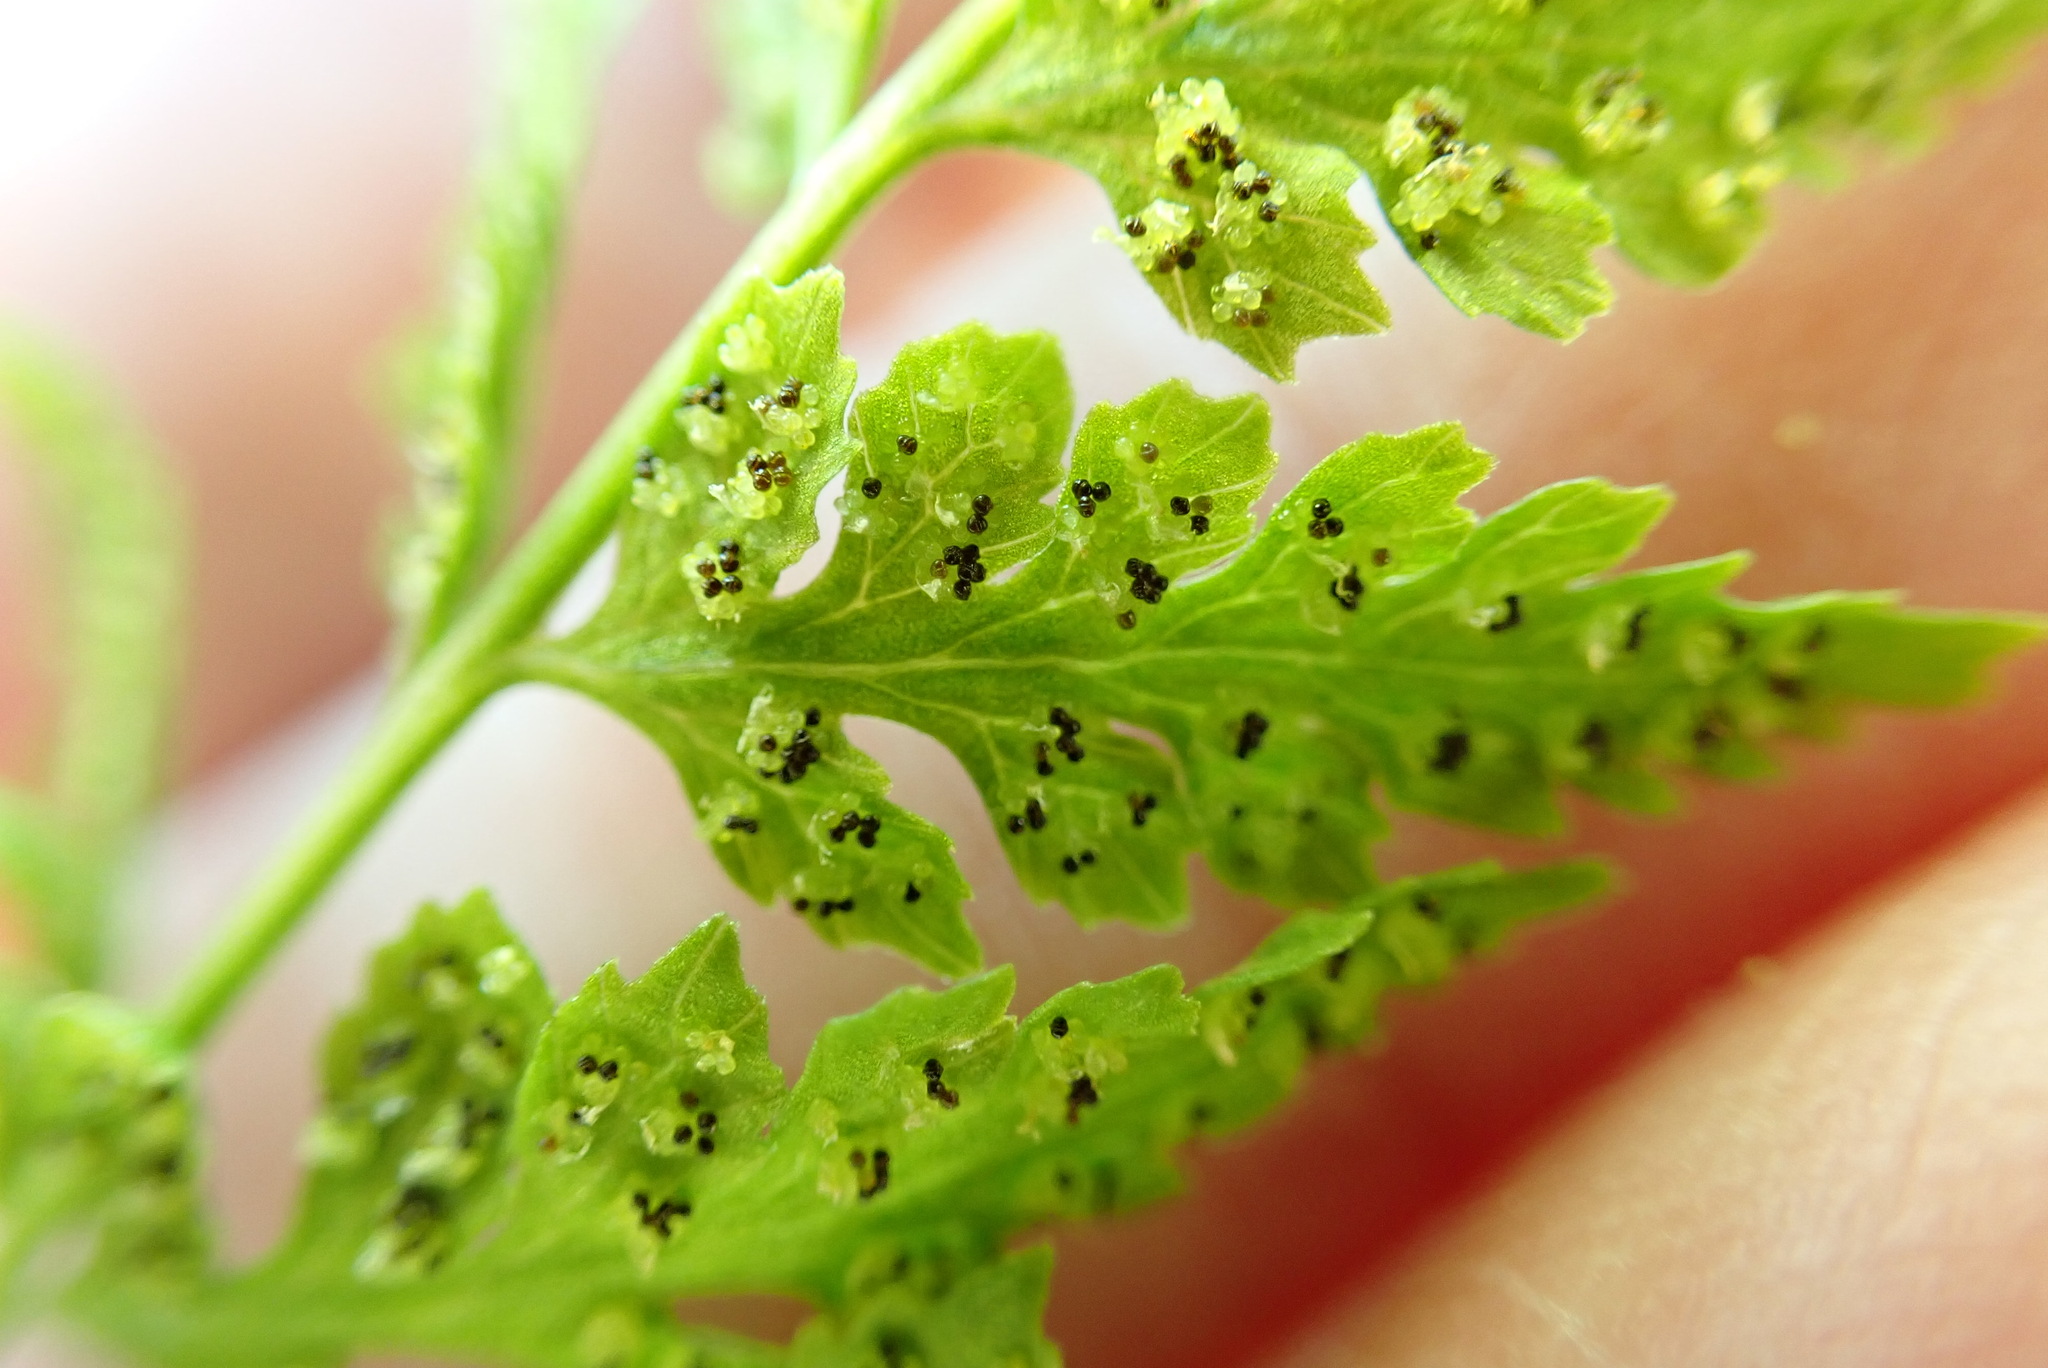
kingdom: Plantae
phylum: Tracheophyta
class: Polypodiopsida
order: Polypodiales
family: Cystopteridaceae
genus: Cystopteris
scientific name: Cystopteris fragilis
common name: Brittle bladder fern
